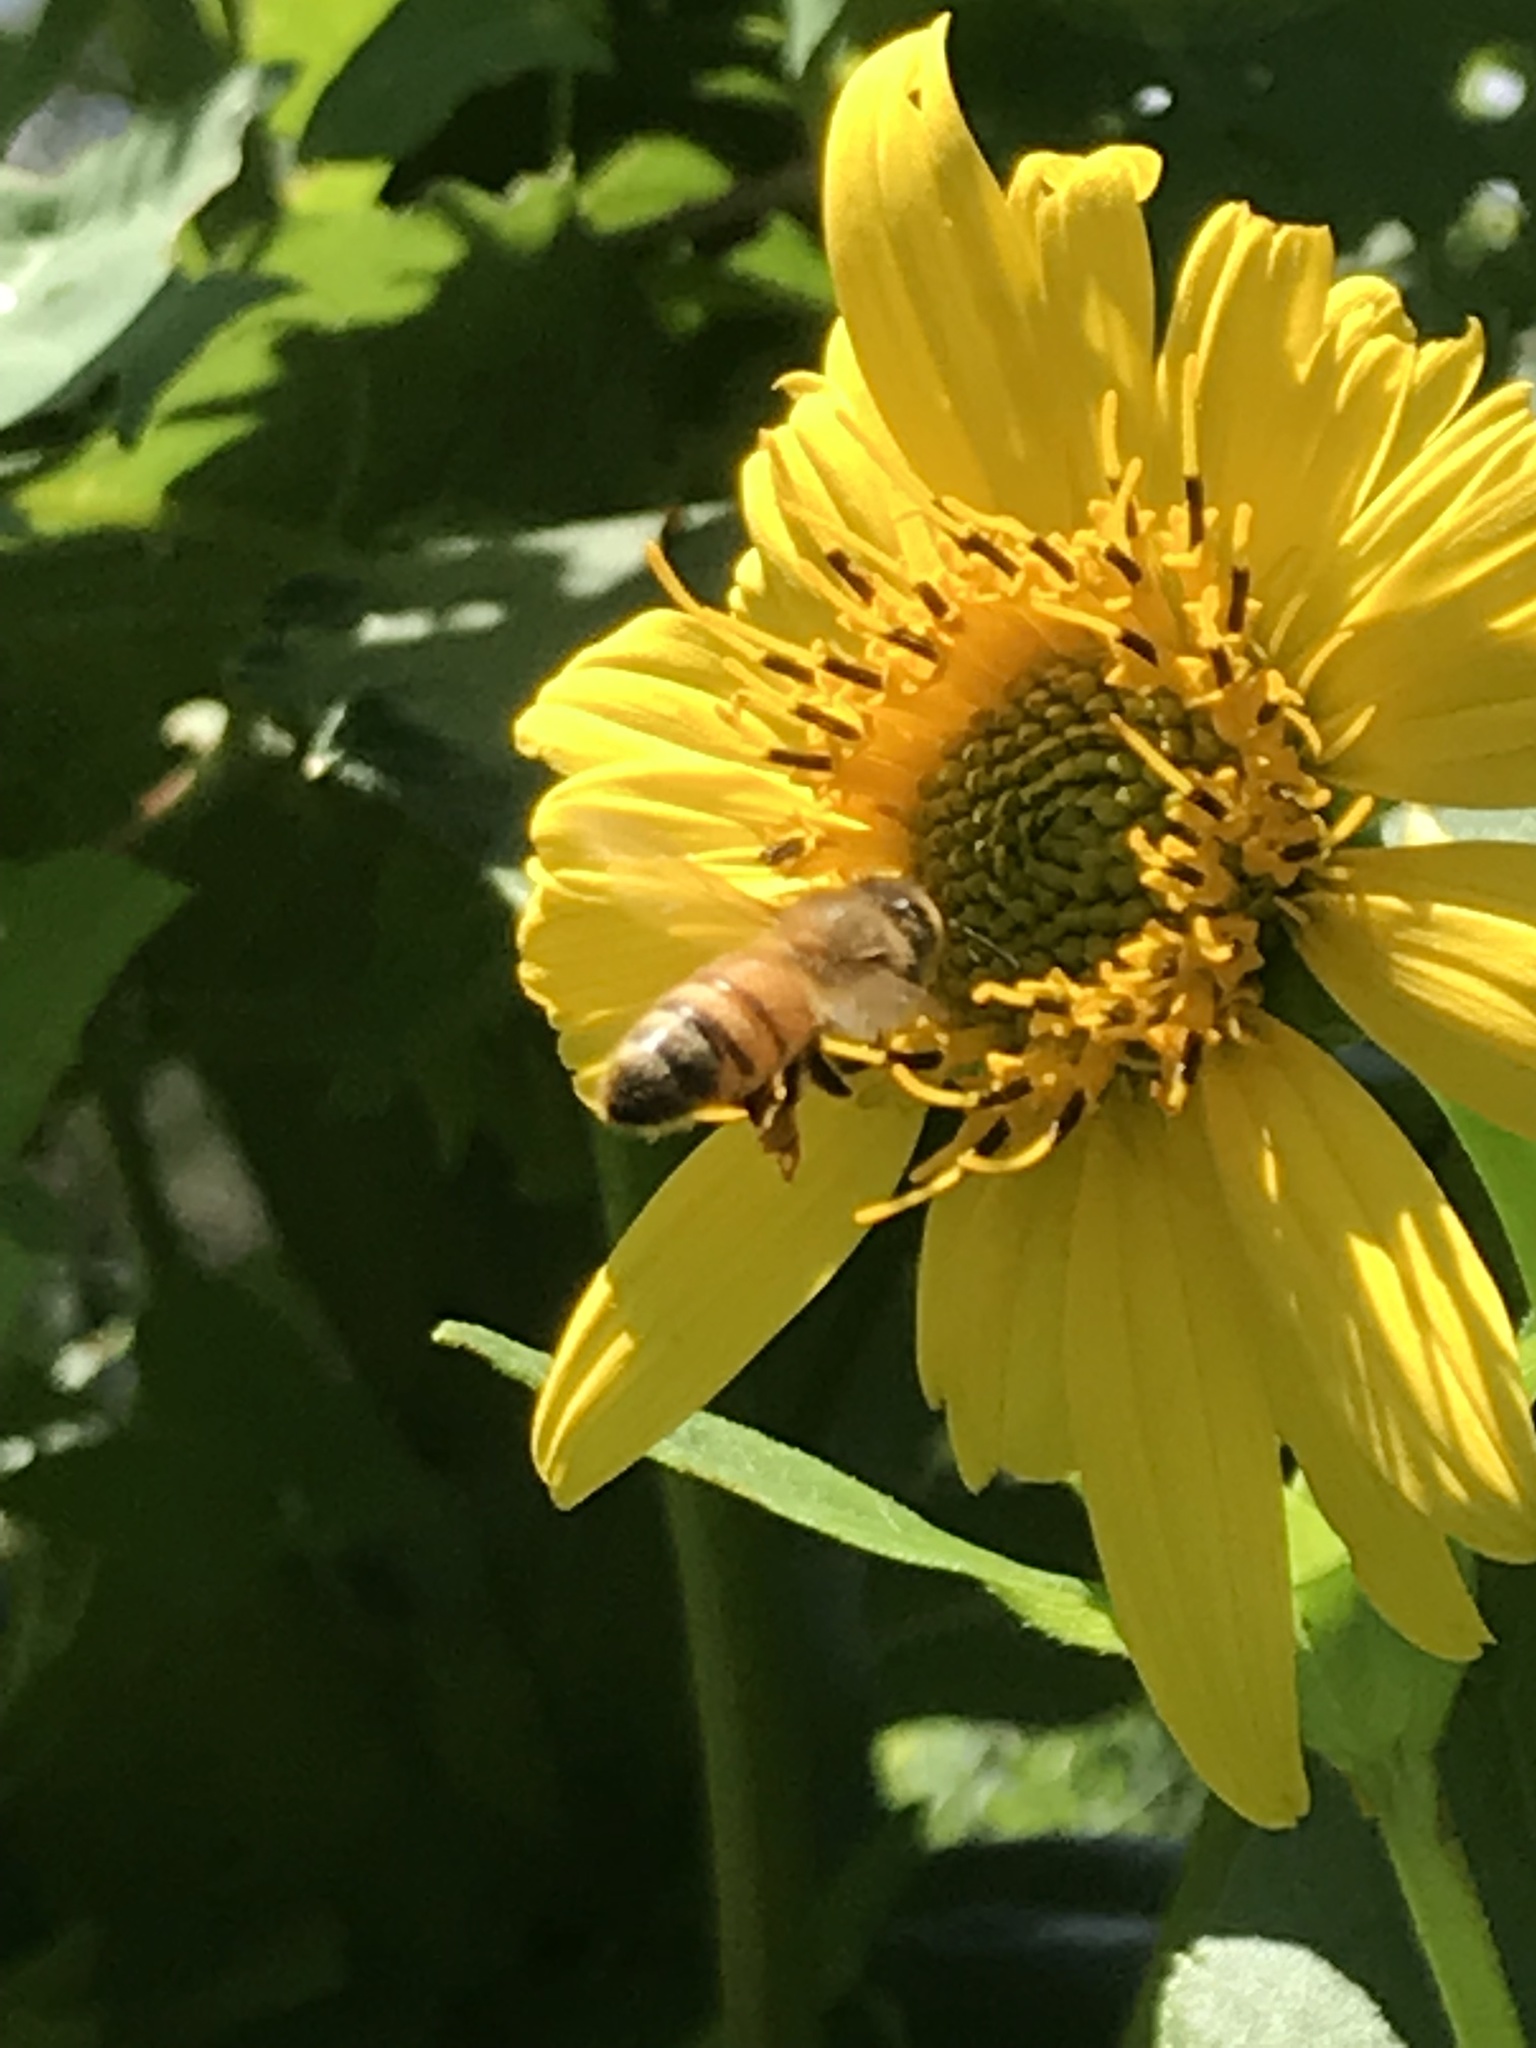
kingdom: Animalia
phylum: Arthropoda
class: Insecta
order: Hymenoptera
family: Apidae
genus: Apis
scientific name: Apis mellifera
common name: Honey bee
